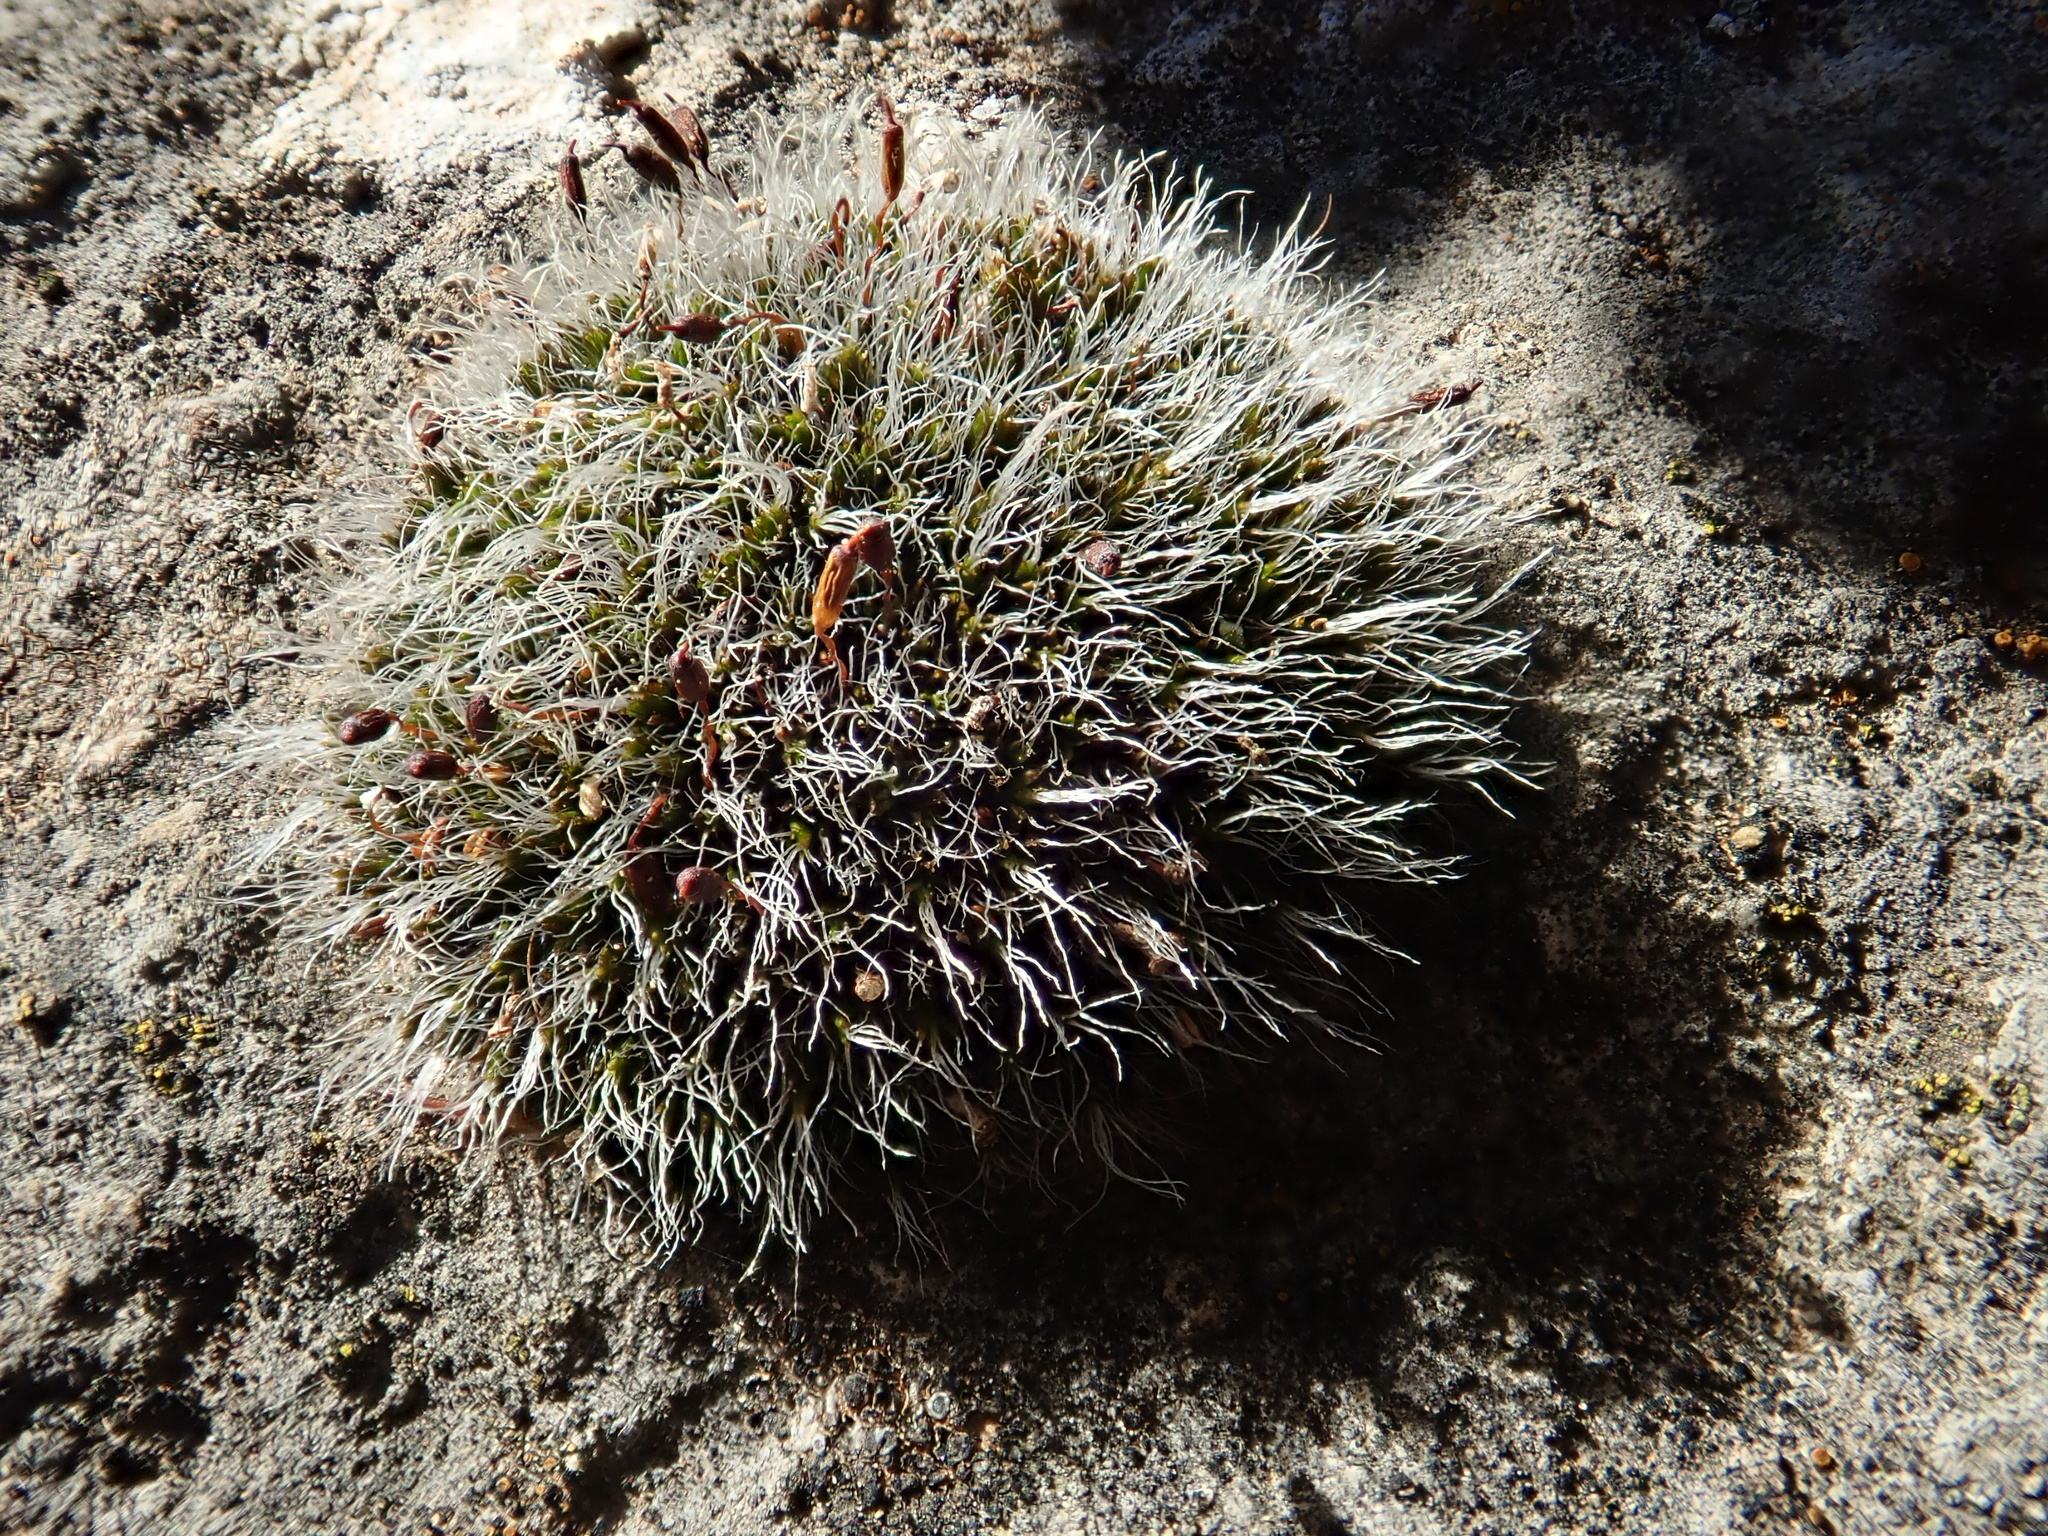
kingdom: Plantae
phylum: Bryophyta
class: Bryopsida
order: Grimmiales
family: Grimmiaceae
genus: Grimmia
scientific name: Grimmia pulvinata
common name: Grey-cushioned grimmia
